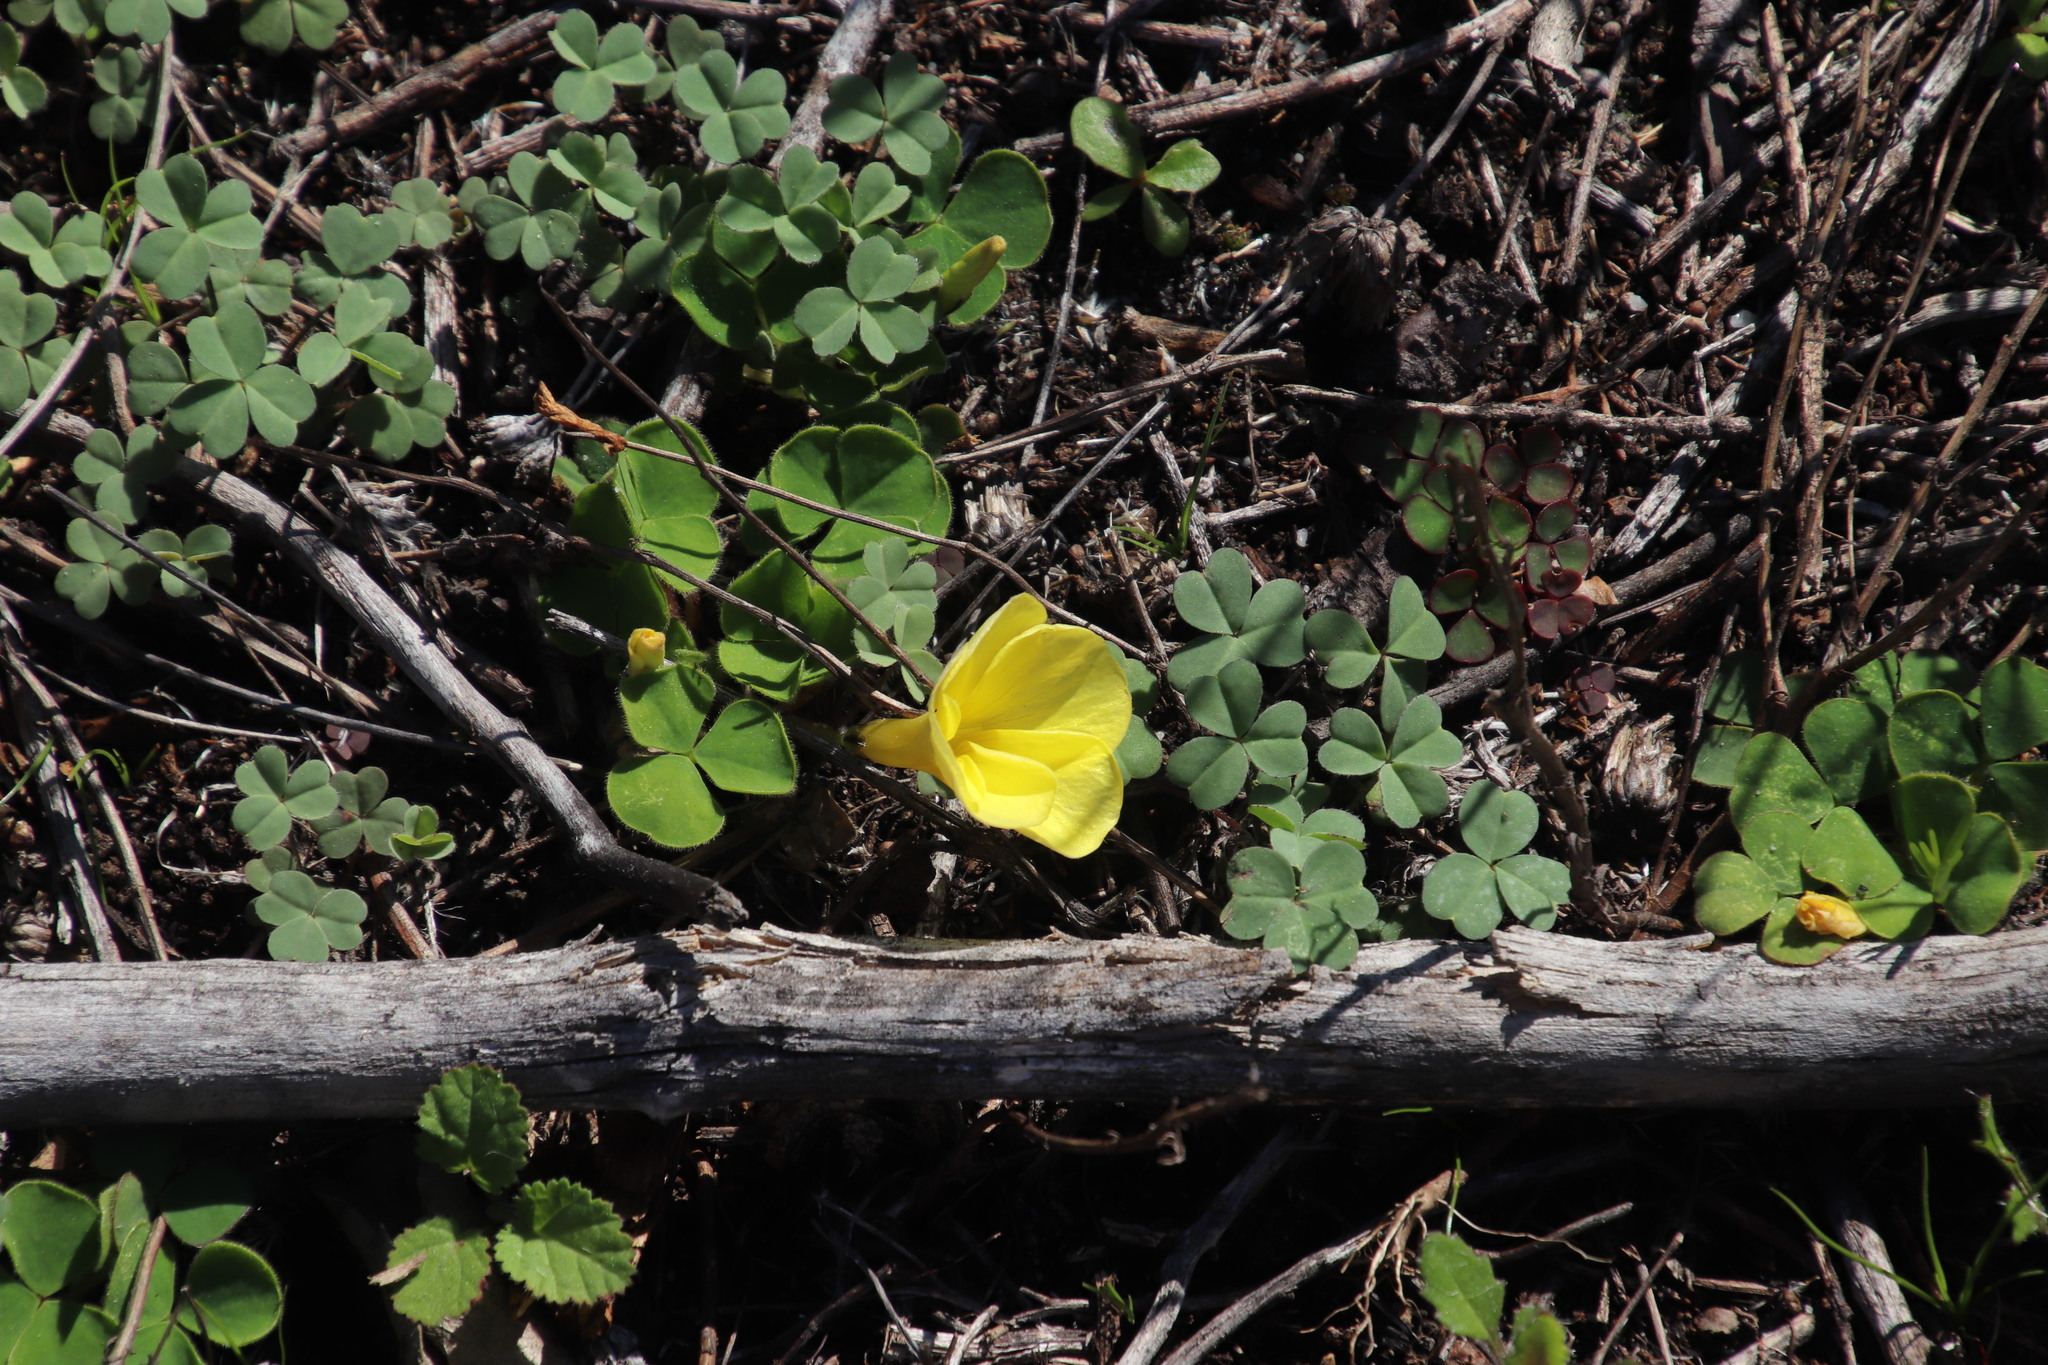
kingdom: Plantae
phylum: Tracheophyta
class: Magnoliopsida
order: Oxalidales
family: Oxalidaceae
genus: Oxalis
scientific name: Oxalis luteola
